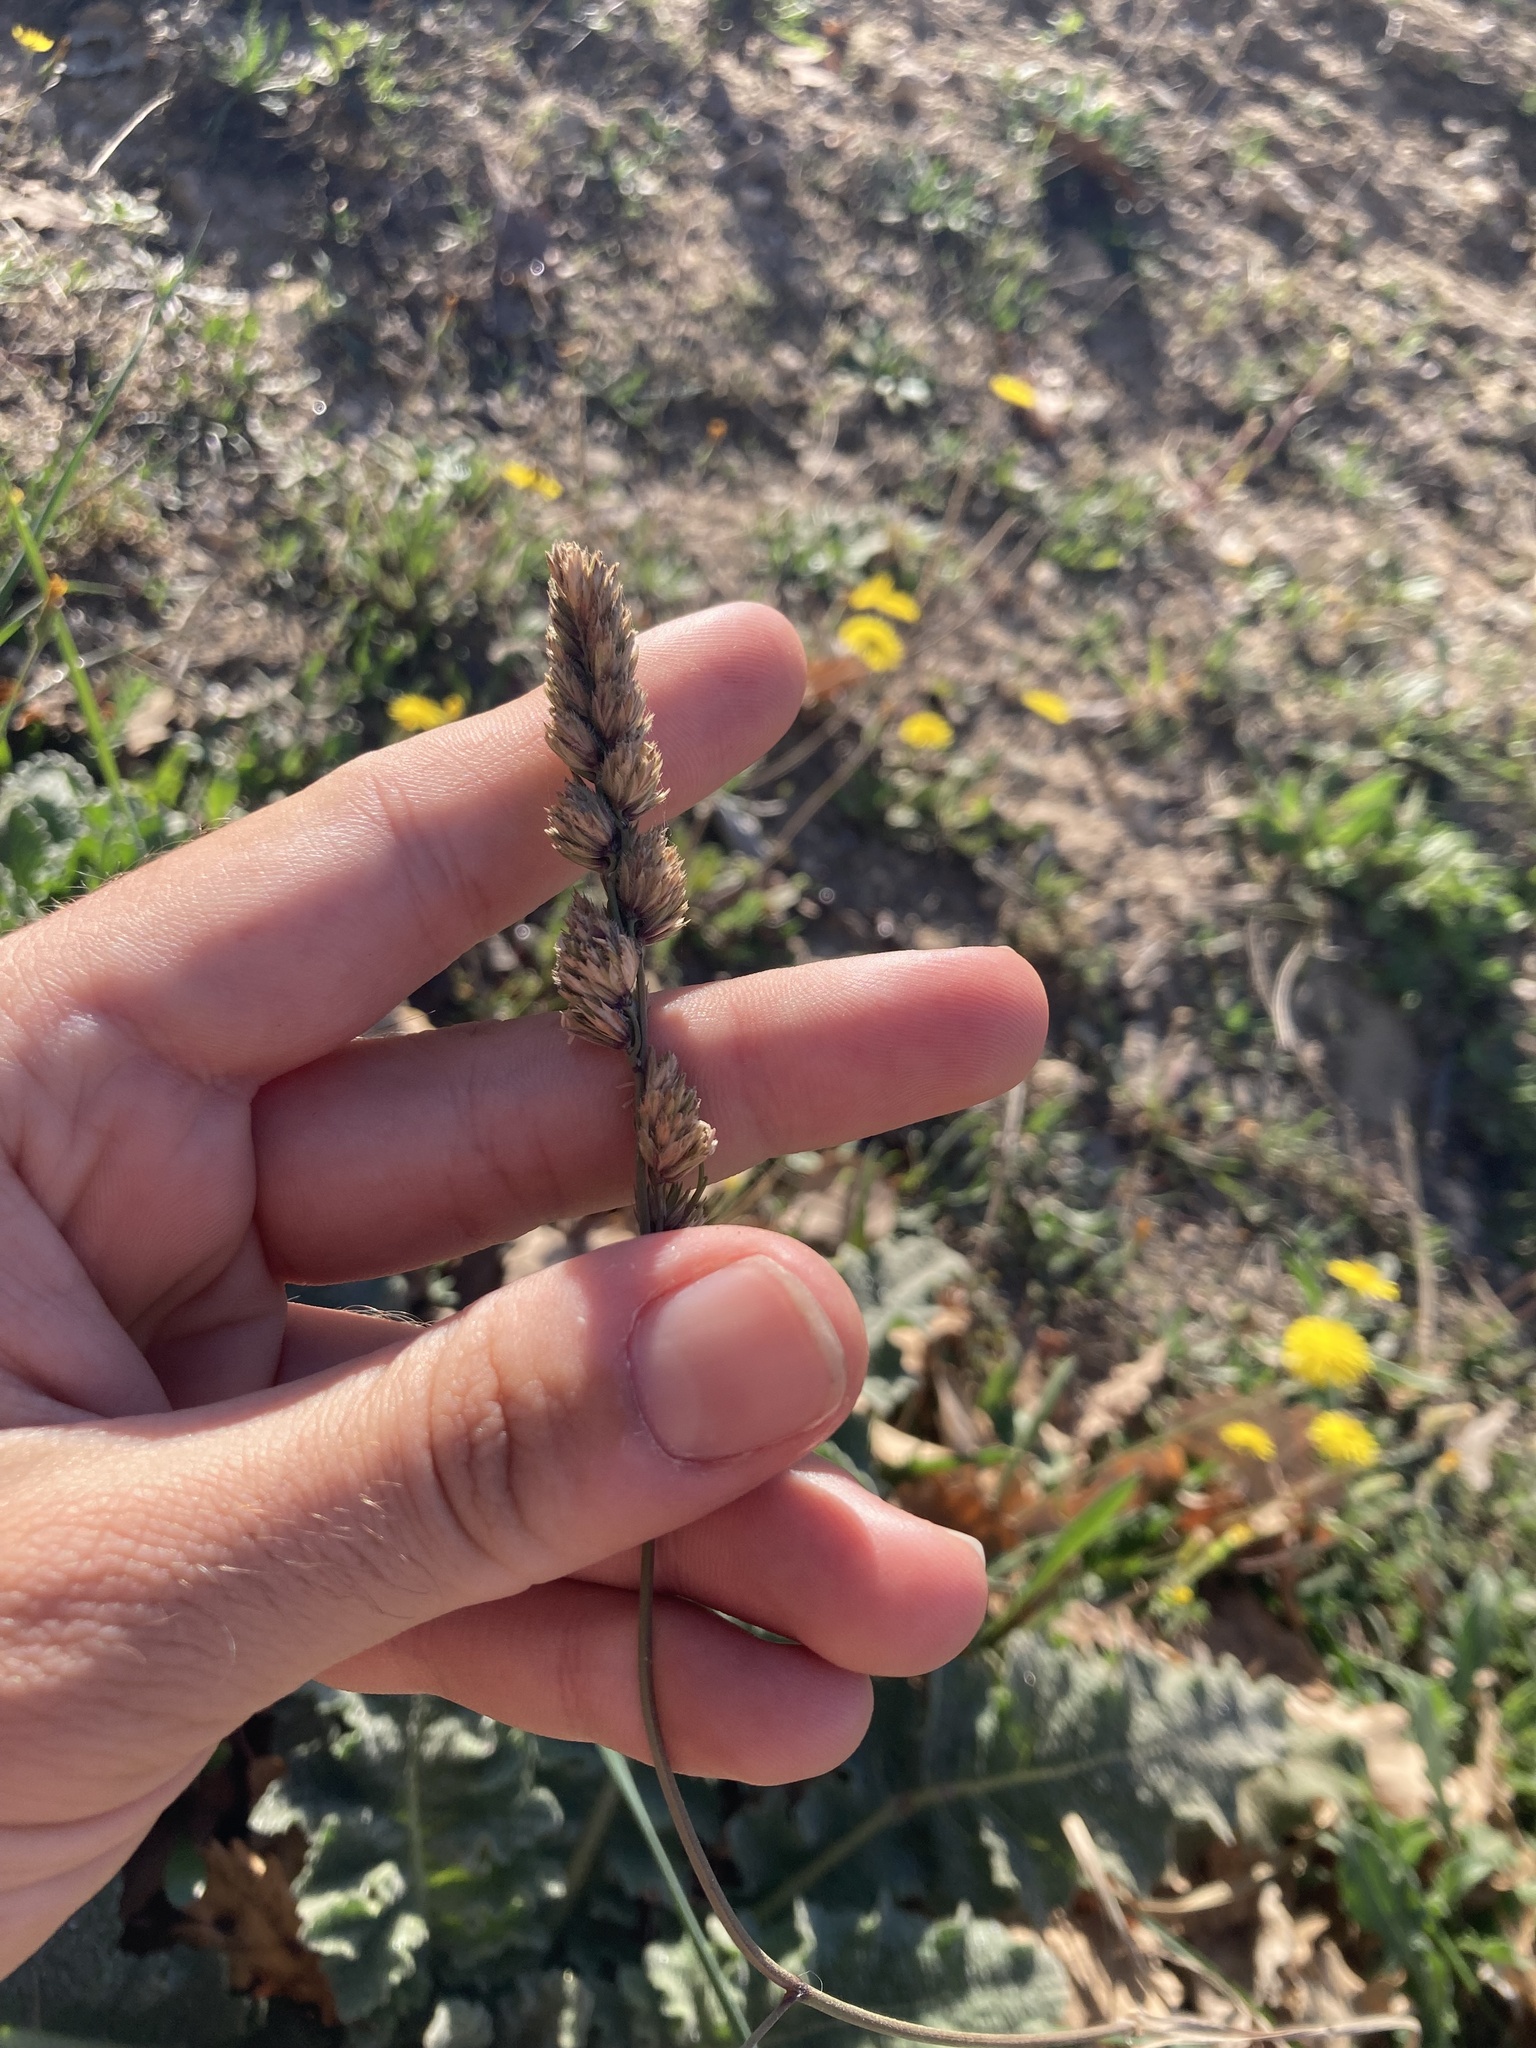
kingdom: Plantae
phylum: Tracheophyta
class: Liliopsida
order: Poales
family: Poaceae
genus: Dactylis
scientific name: Dactylis glomerata
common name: Orchardgrass
